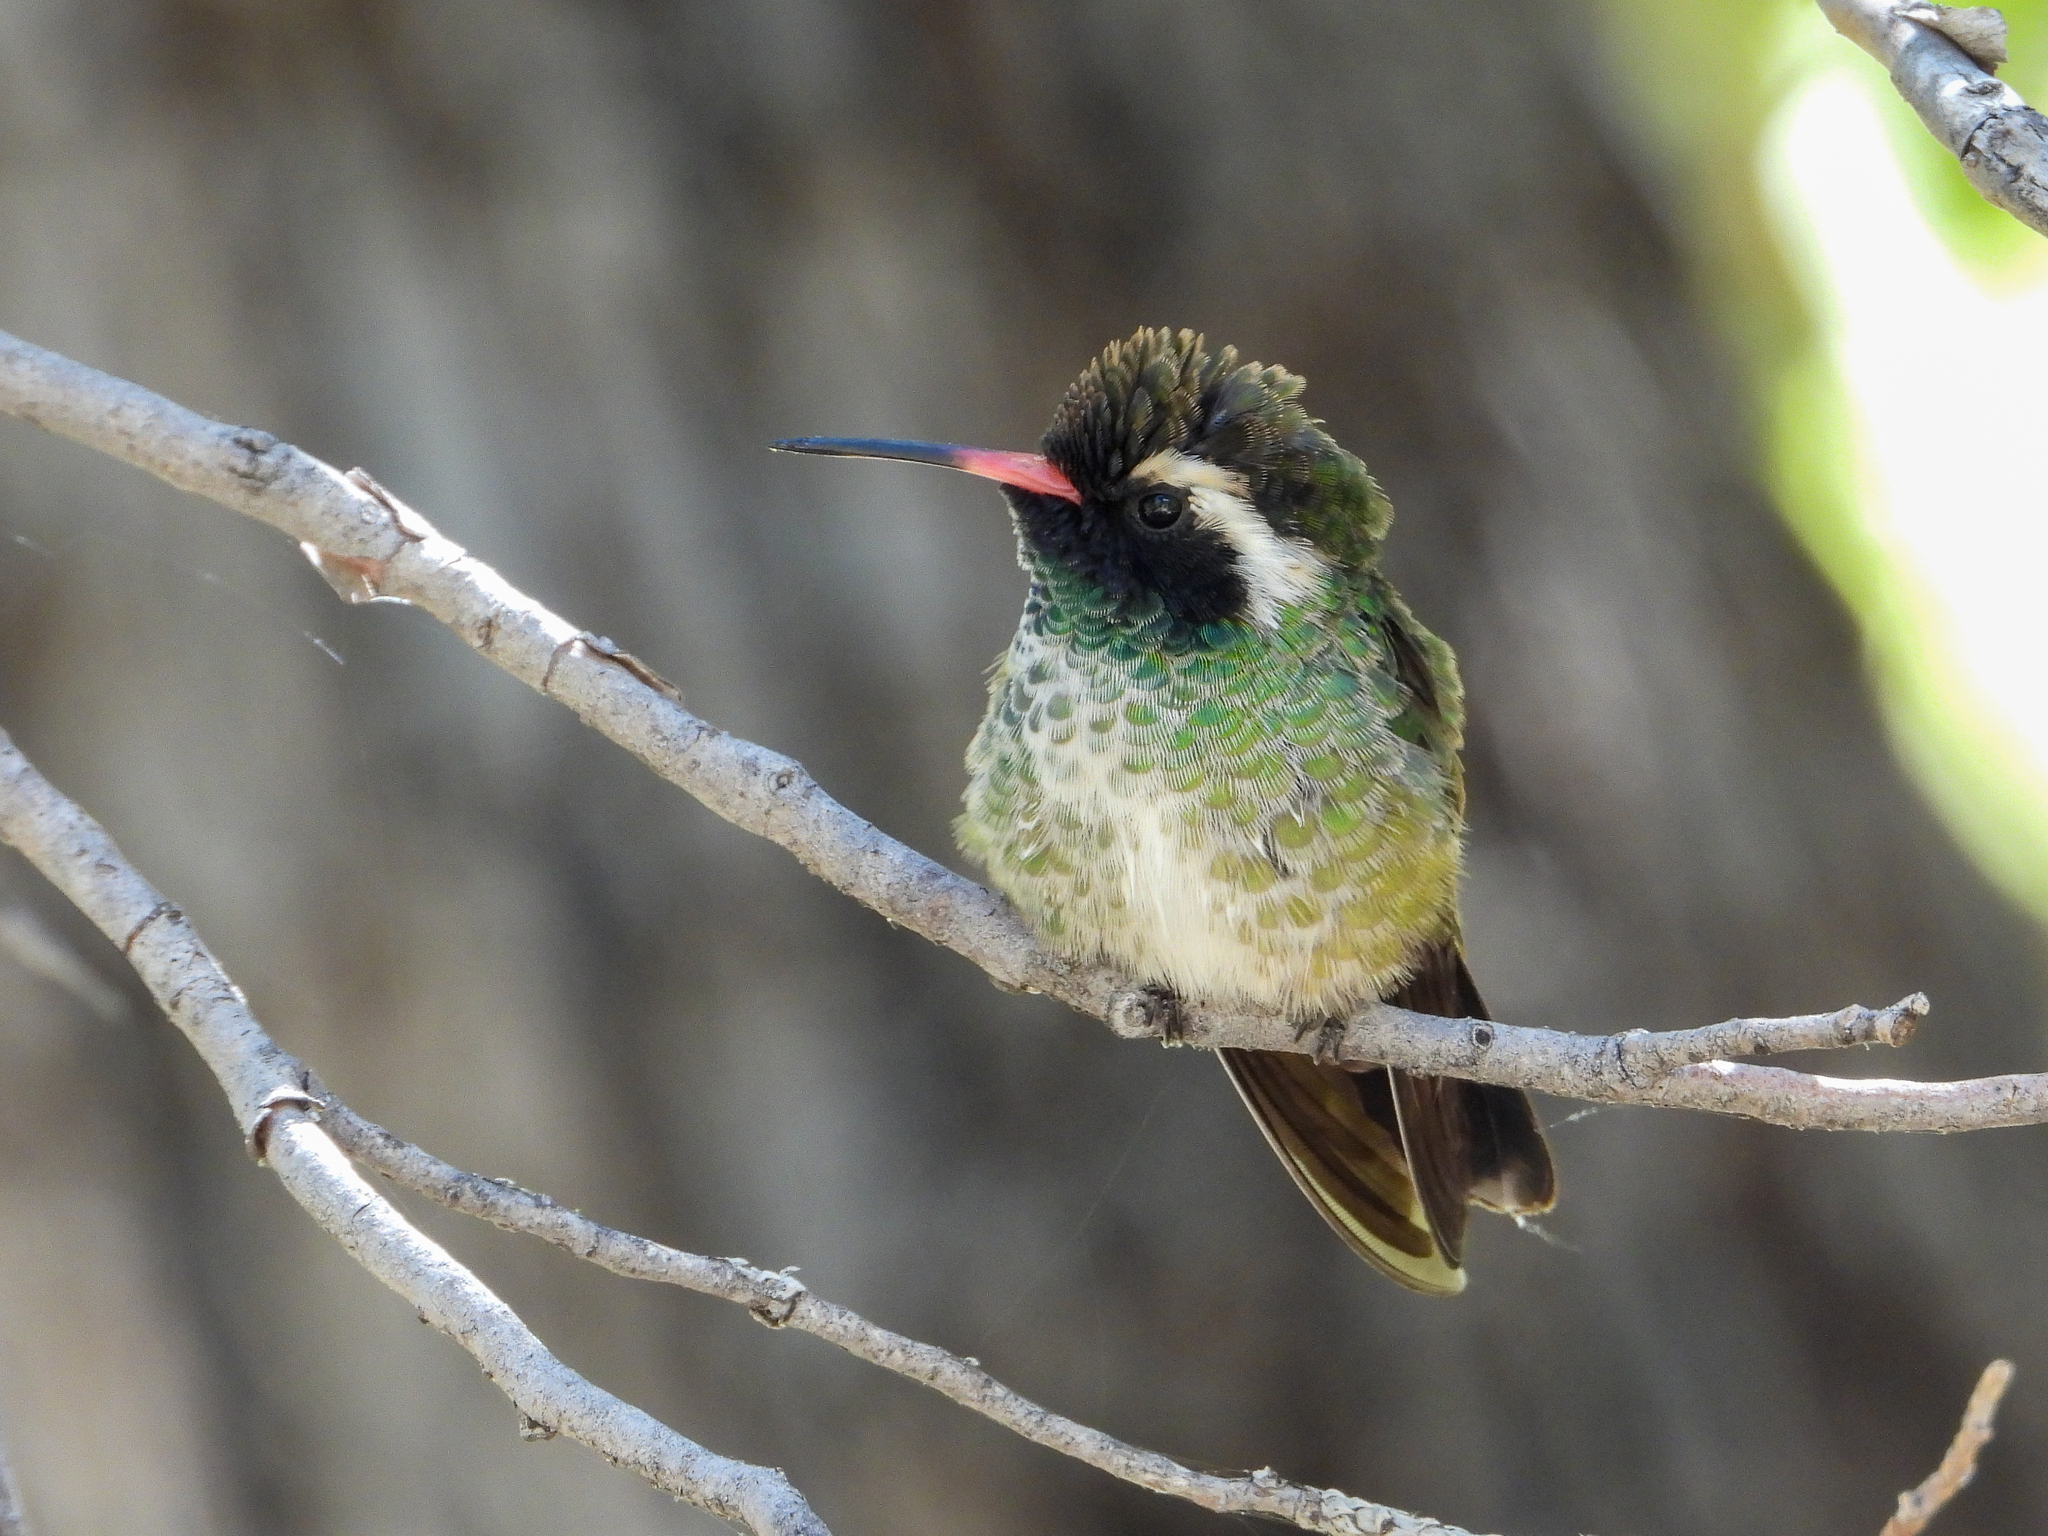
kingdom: Animalia
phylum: Chordata
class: Aves
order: Apodiformes
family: Trochilidae
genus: Basilinna
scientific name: Basilinna leucotis
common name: White-eared hummingbird
